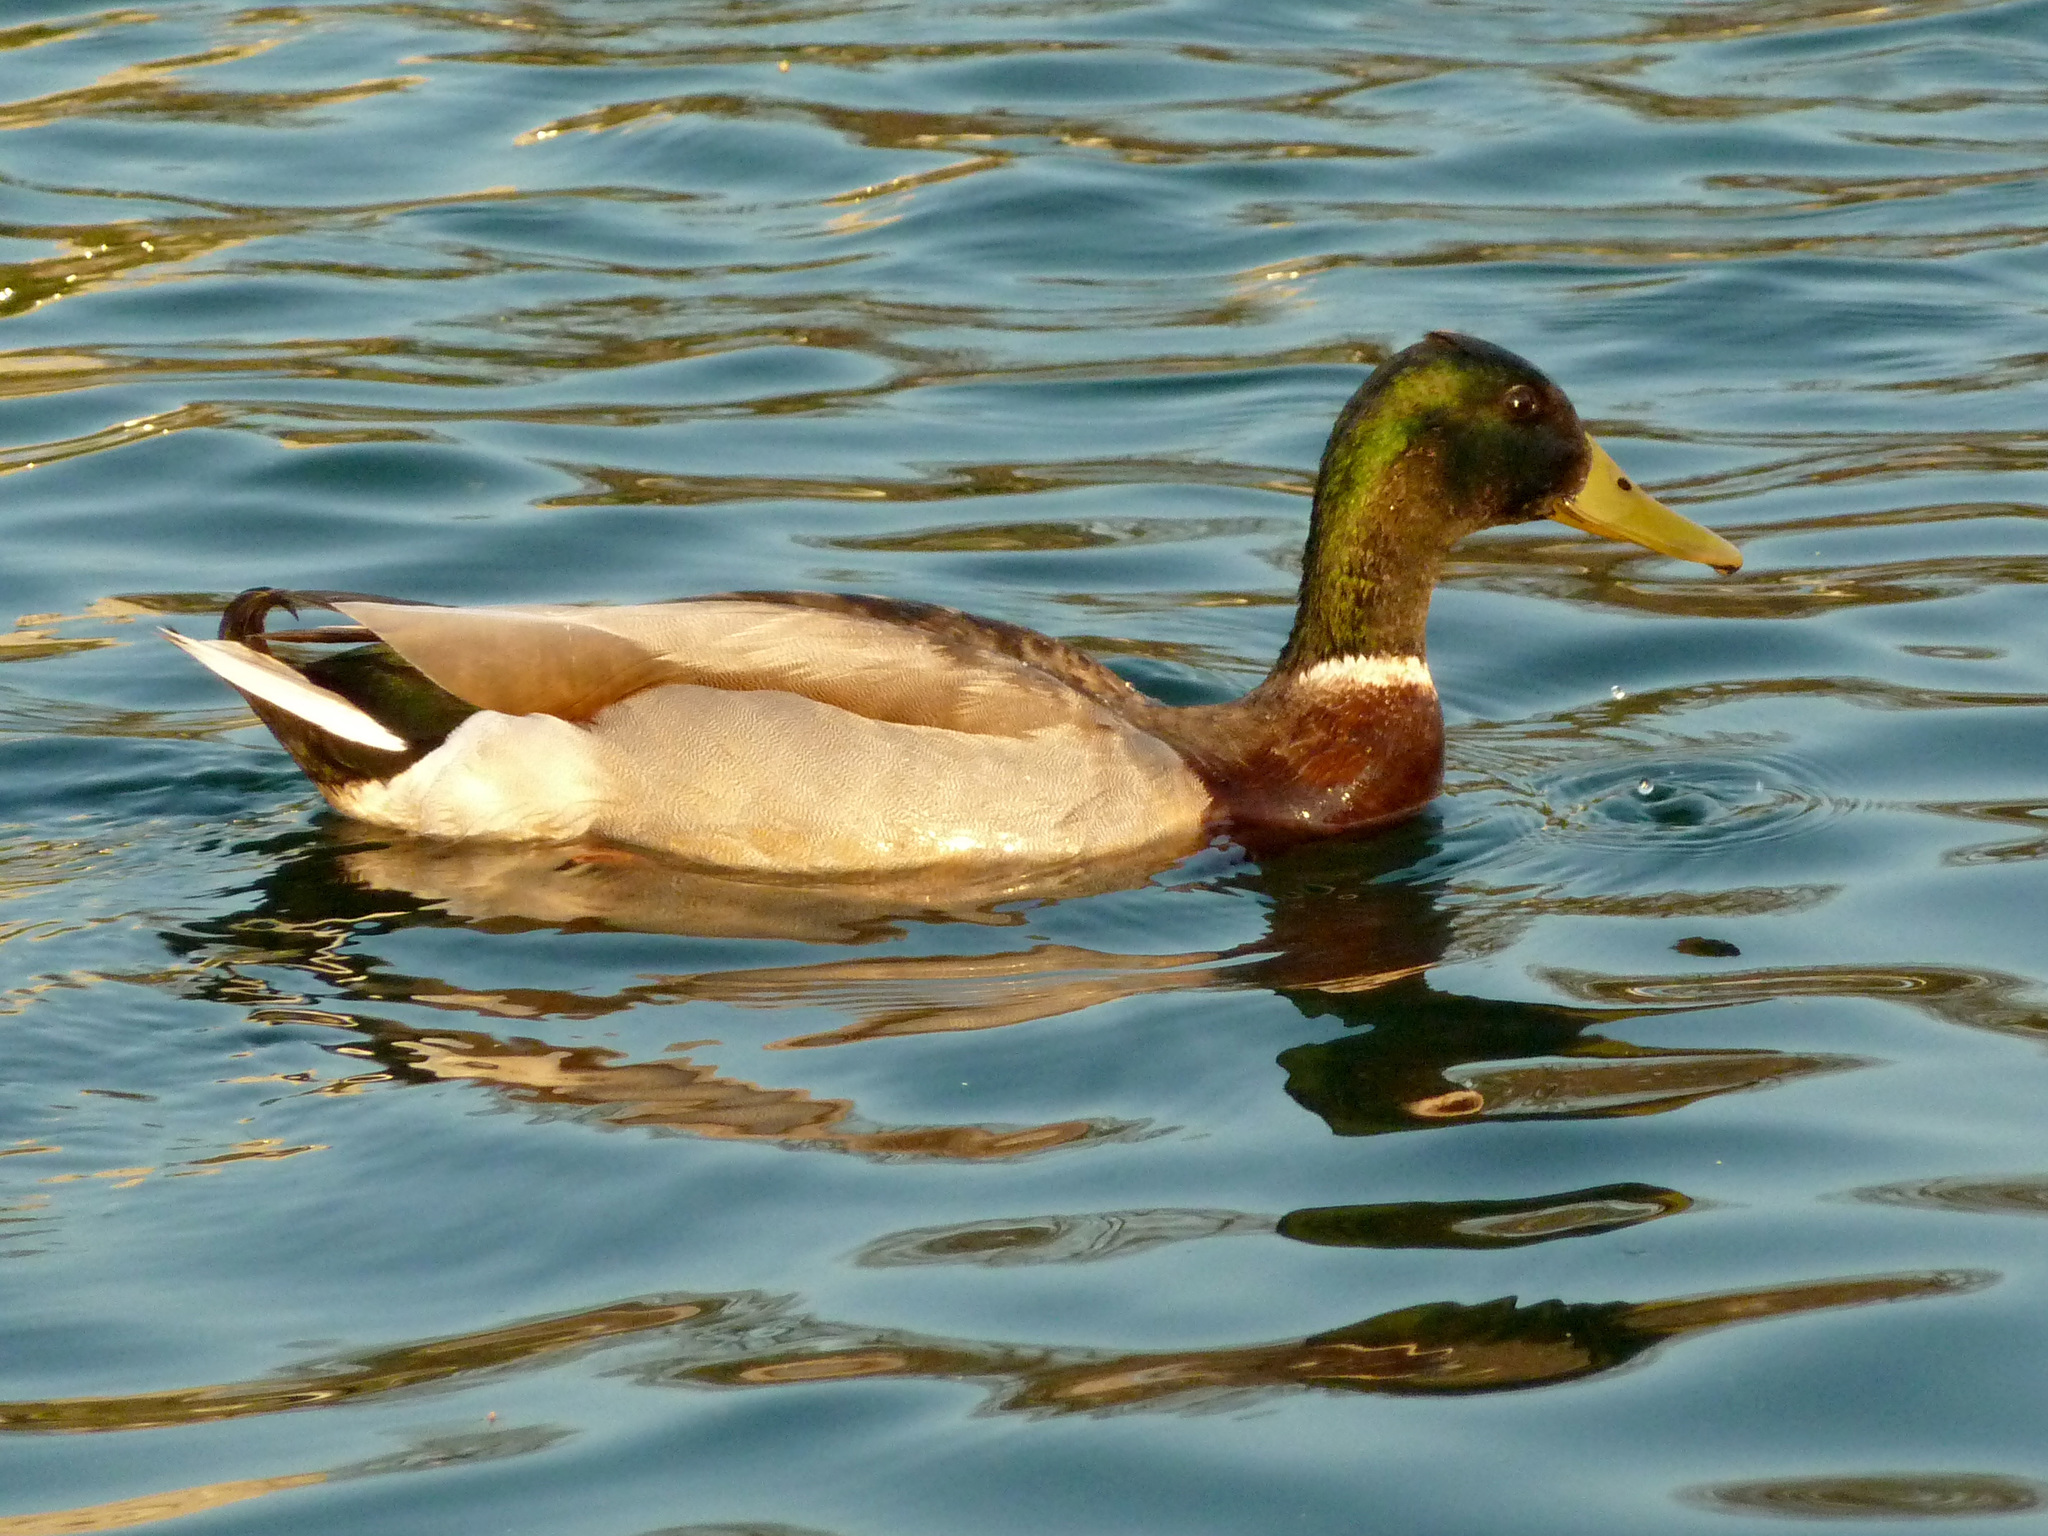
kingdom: Animalia
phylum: Chordata
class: Aves
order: Anseriformes
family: Anatidae
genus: Anas
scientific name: Anas platyrhynchos
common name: Mallard
